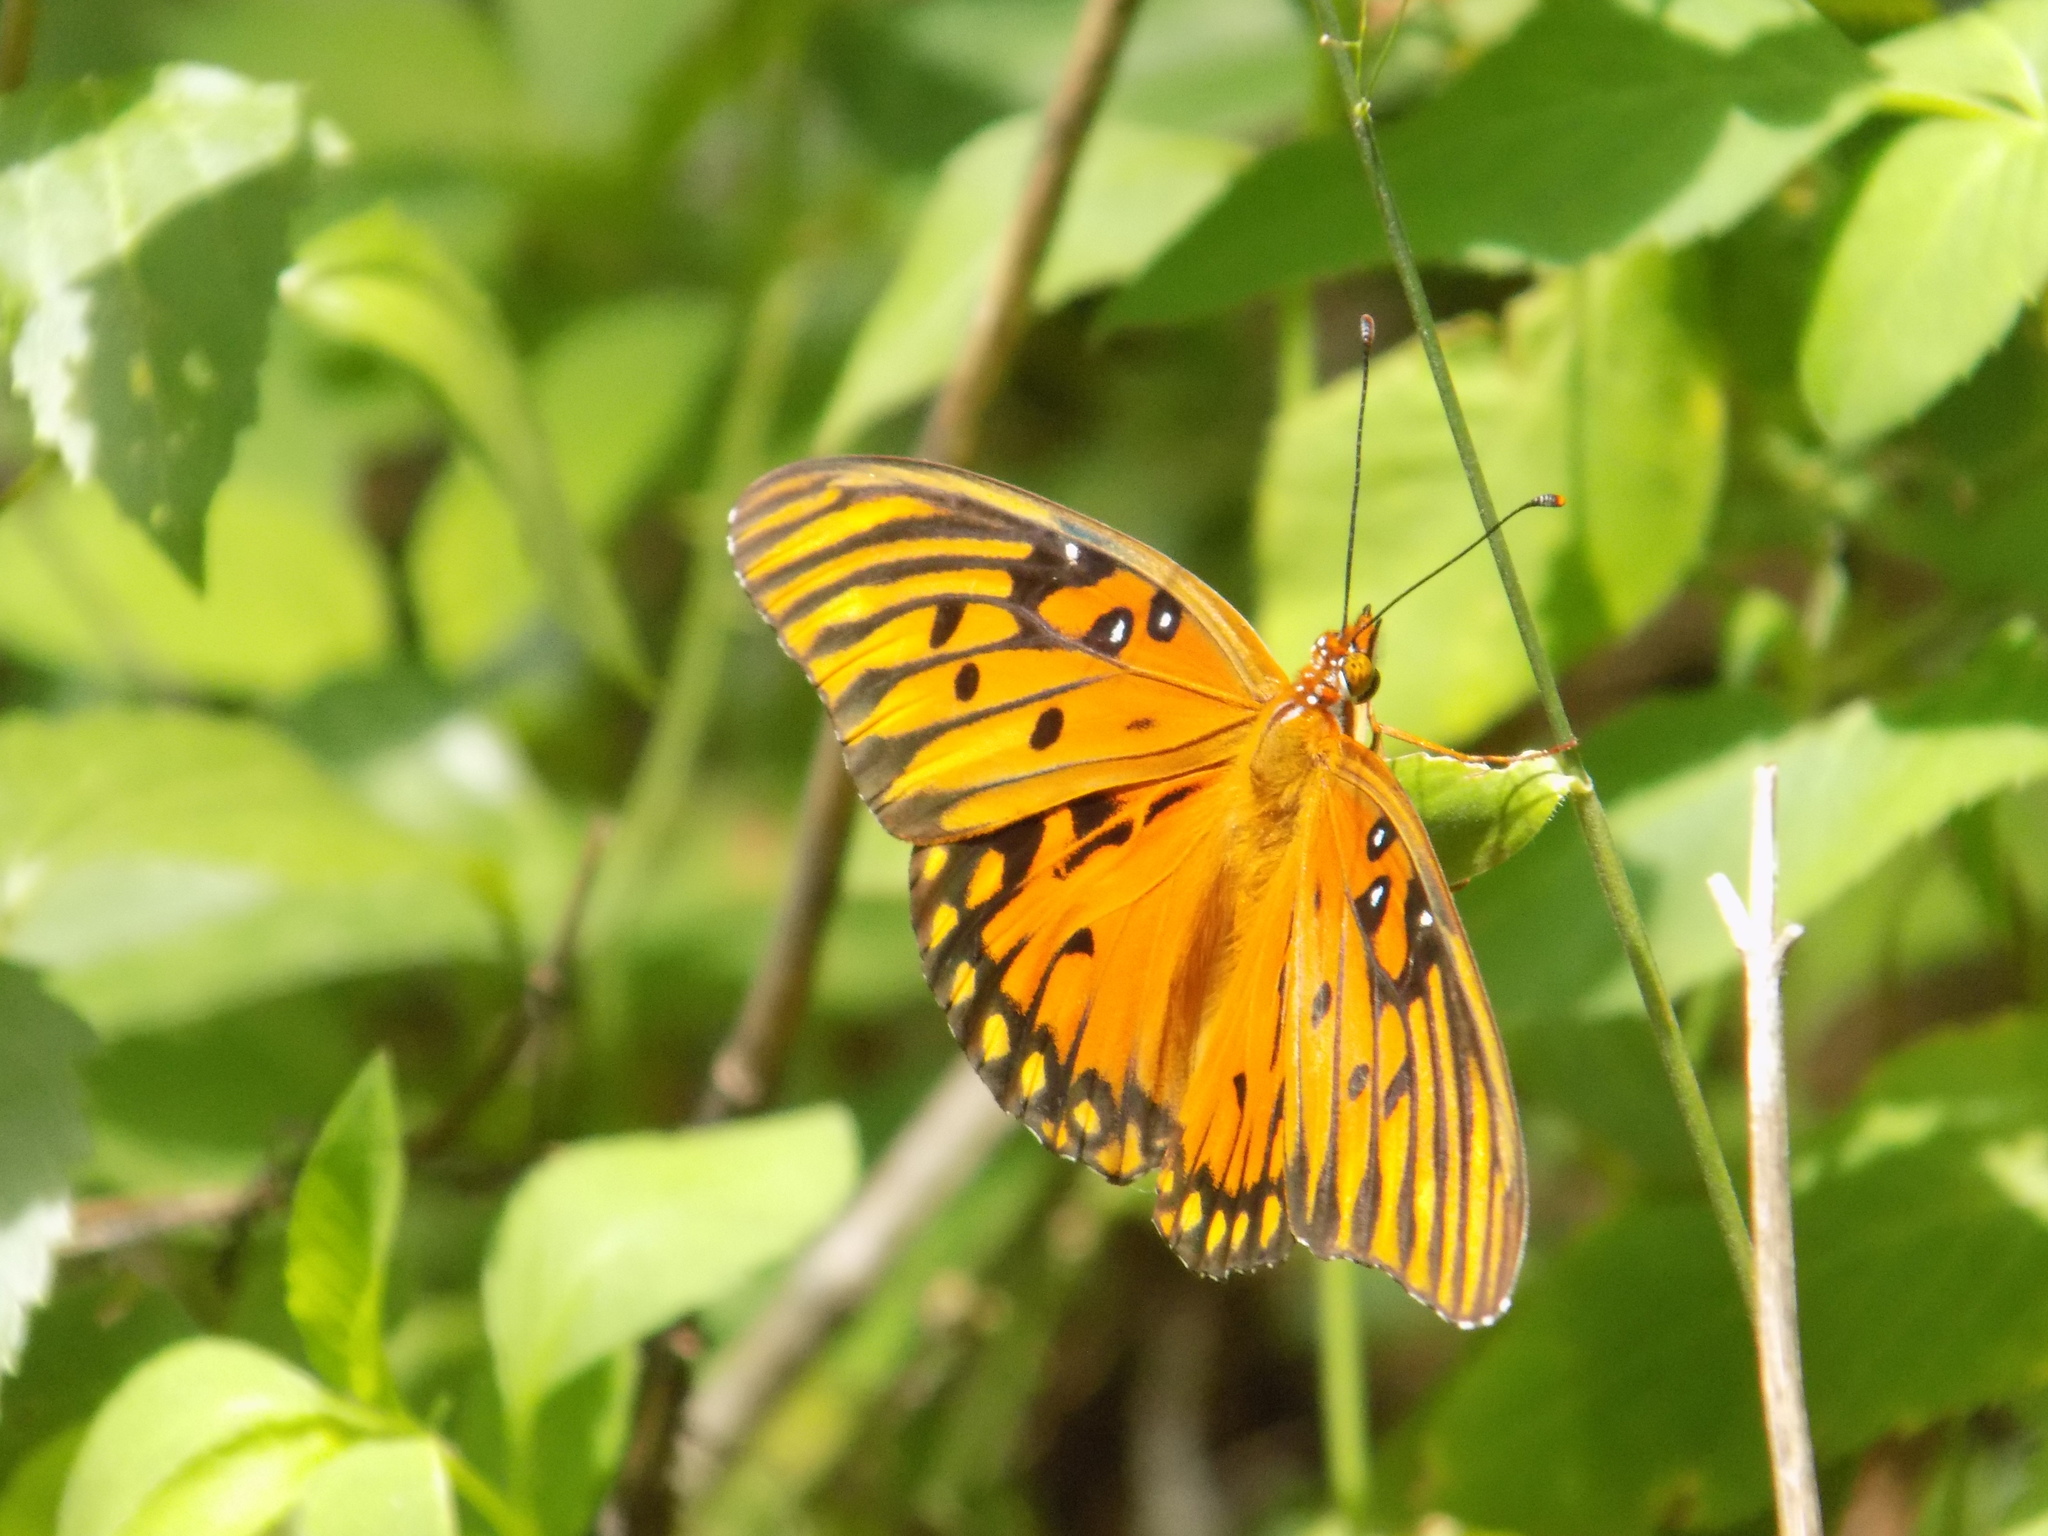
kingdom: Animalia
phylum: Arthropoda
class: Insecta
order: Lepidoptera
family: Nymphalidae
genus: Dione
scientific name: Dione vanillae
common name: Gulf fritillary
